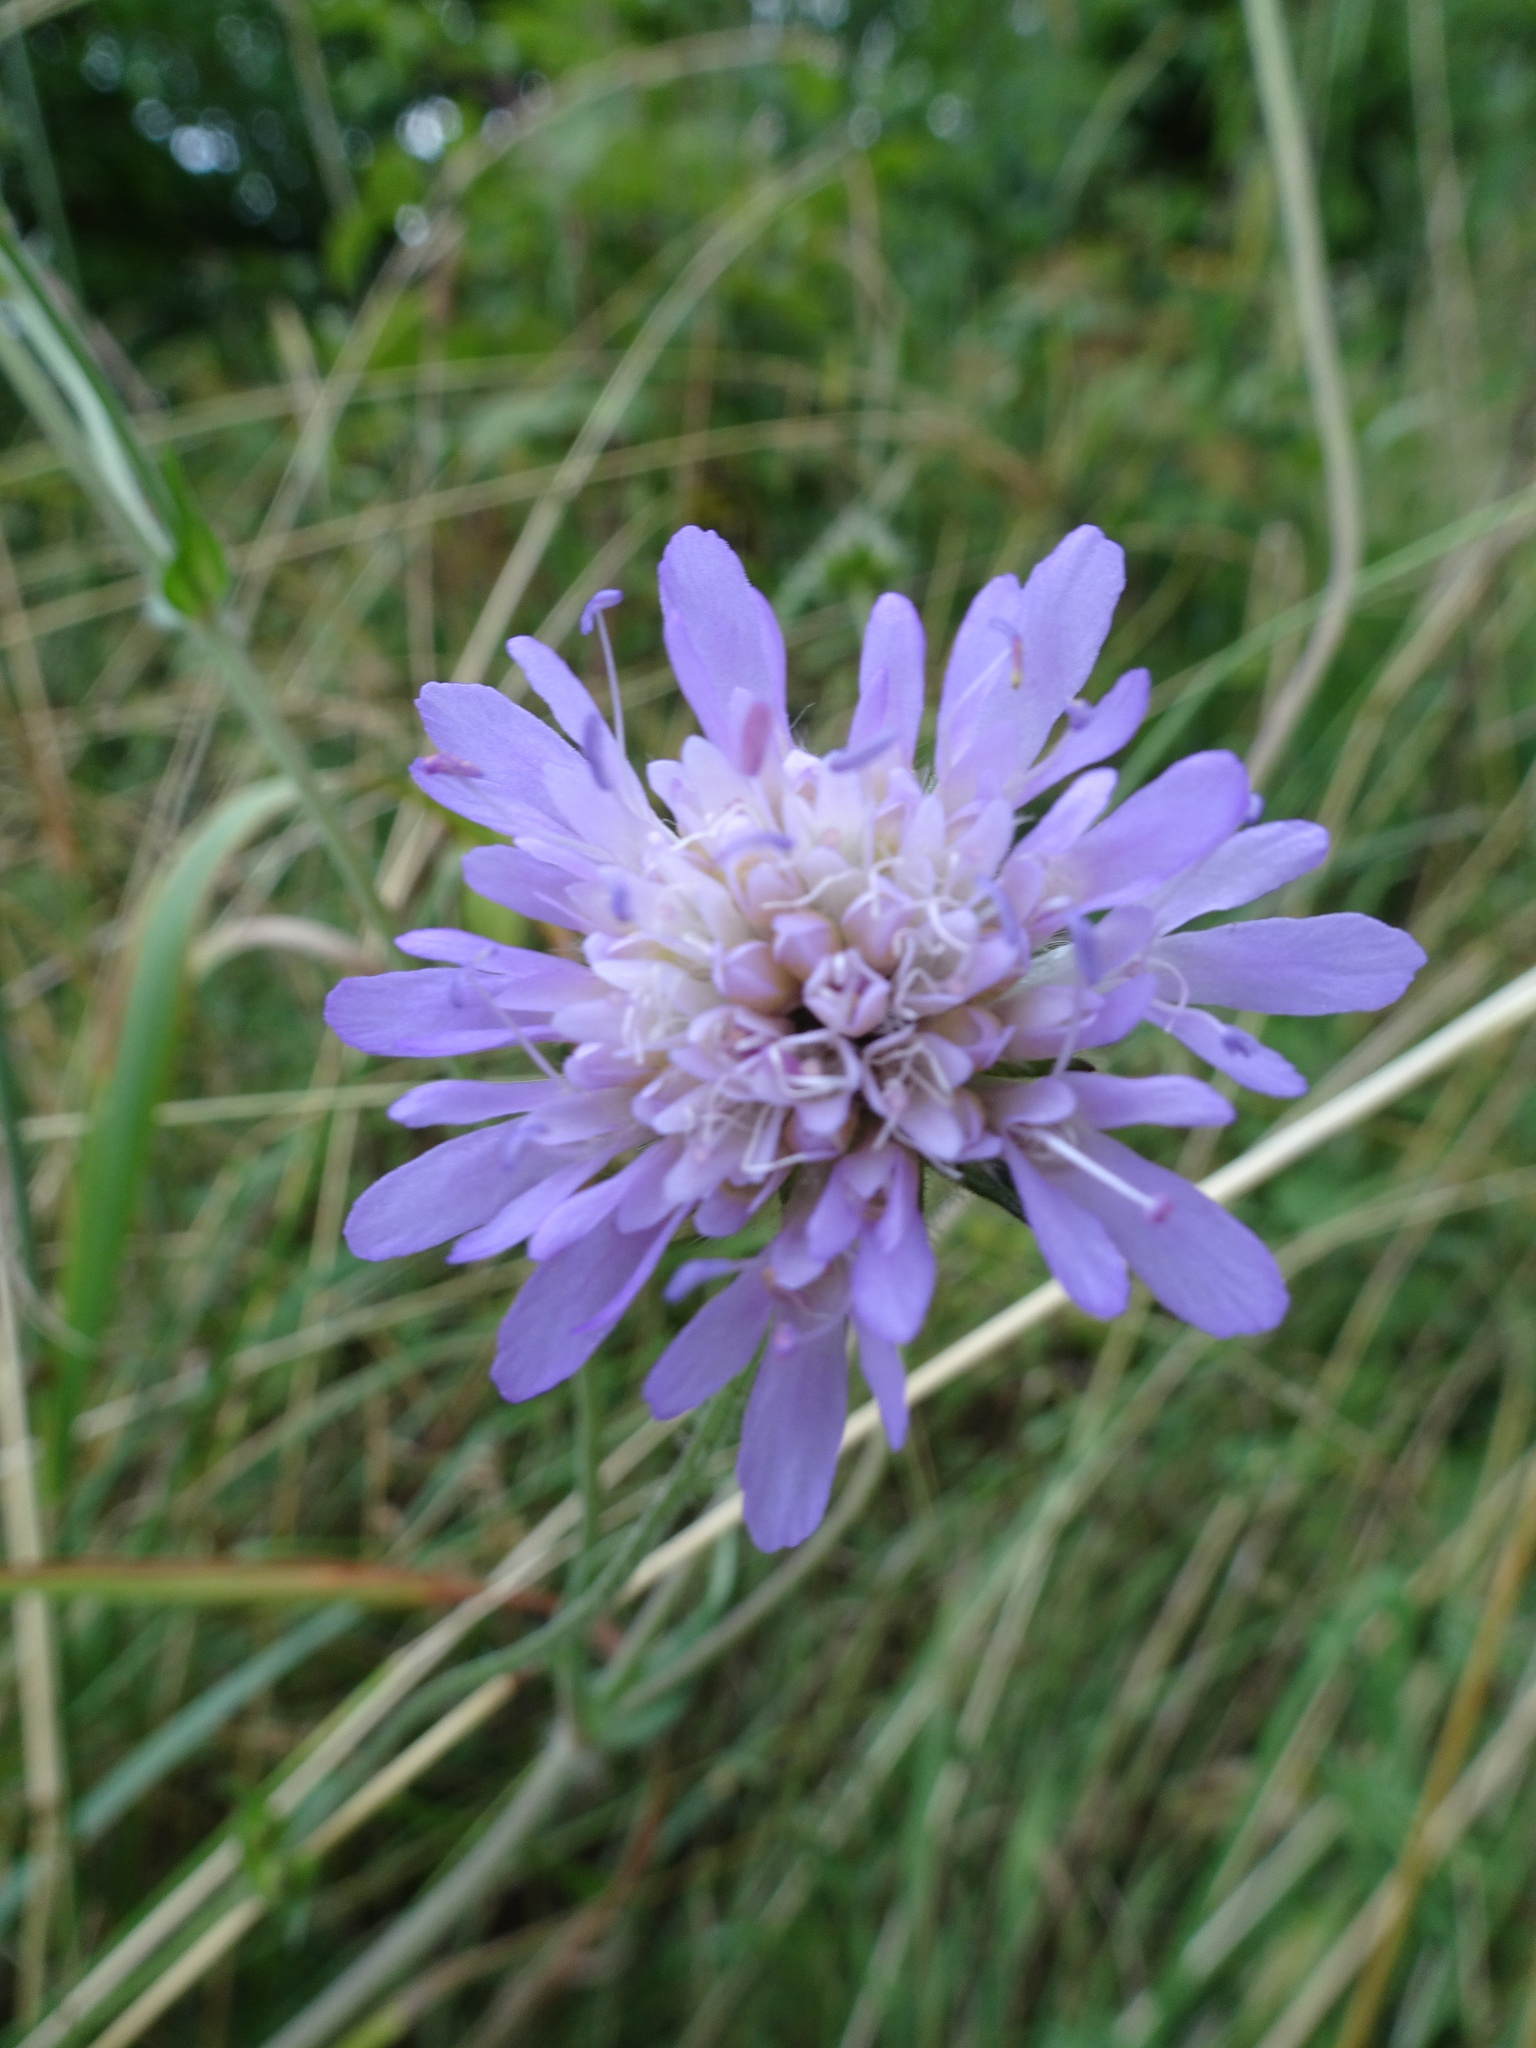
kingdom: Plantae
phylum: Tracheophyta
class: Magnoliopsida
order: Dipsacales
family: Caprifoliaceae
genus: Knautia
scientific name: Knautia arvensis
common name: Field scabiosa
